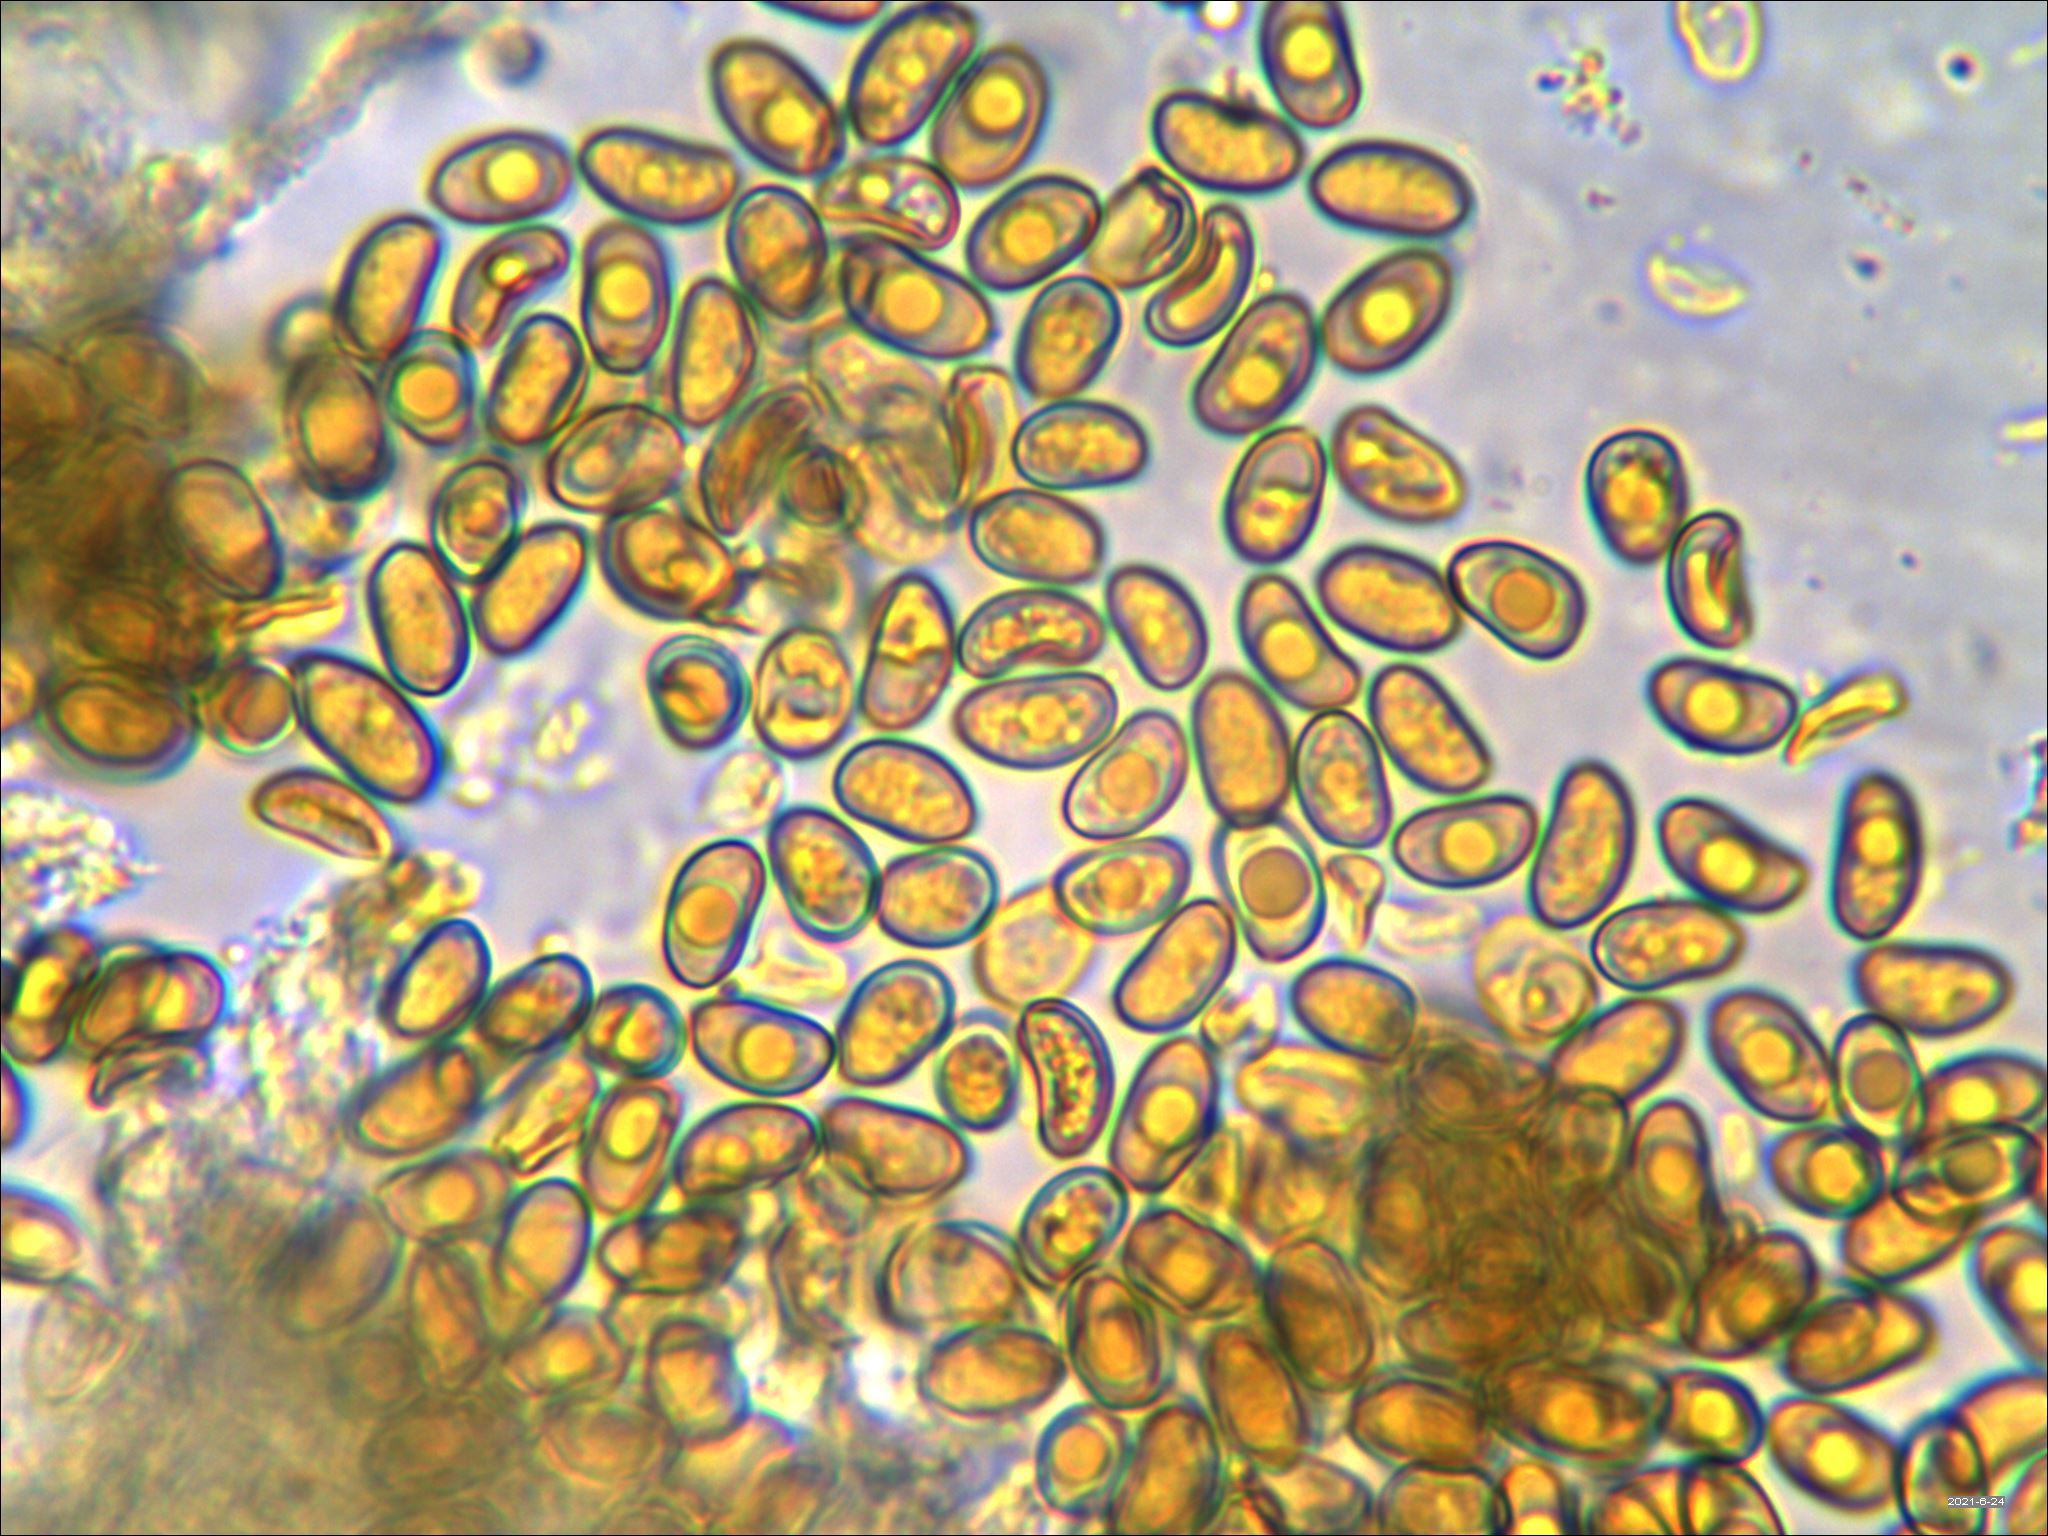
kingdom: Fungi
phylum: Basidiomycota
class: Agaricomycetes
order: Agaricales
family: Tubariaceae
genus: Phaeomarasmius
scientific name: Phaeomarasmius proximans
